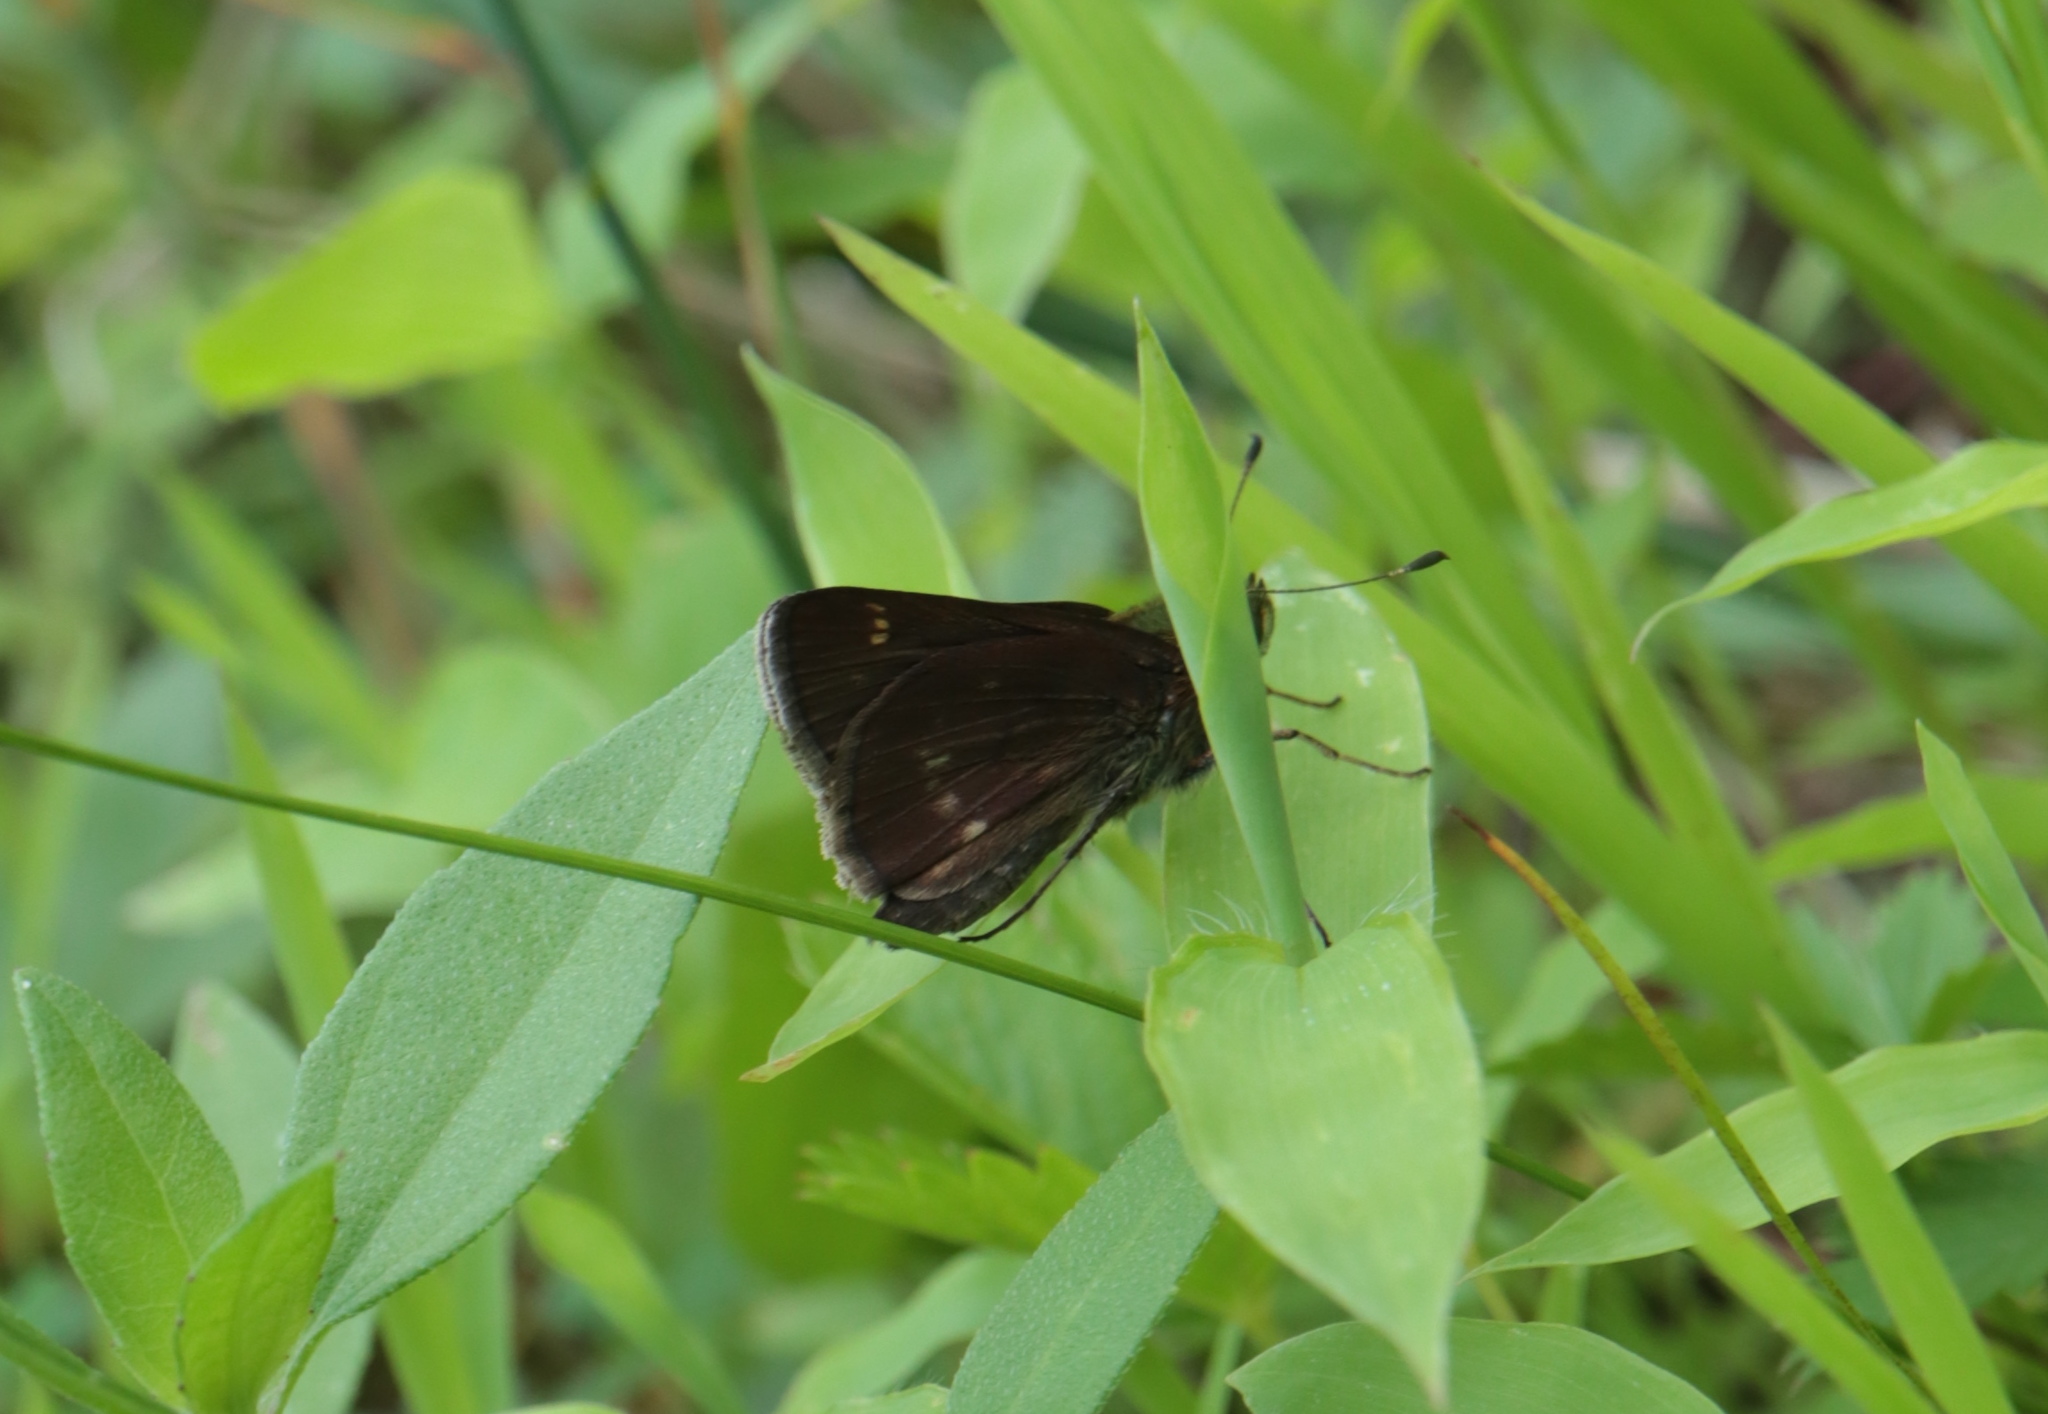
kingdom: Animalia
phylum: Arthropoda
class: Insecta
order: Lepidoptera
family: Hesperiidae
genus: Vernia
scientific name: Vernia verna
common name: Little glassywing
